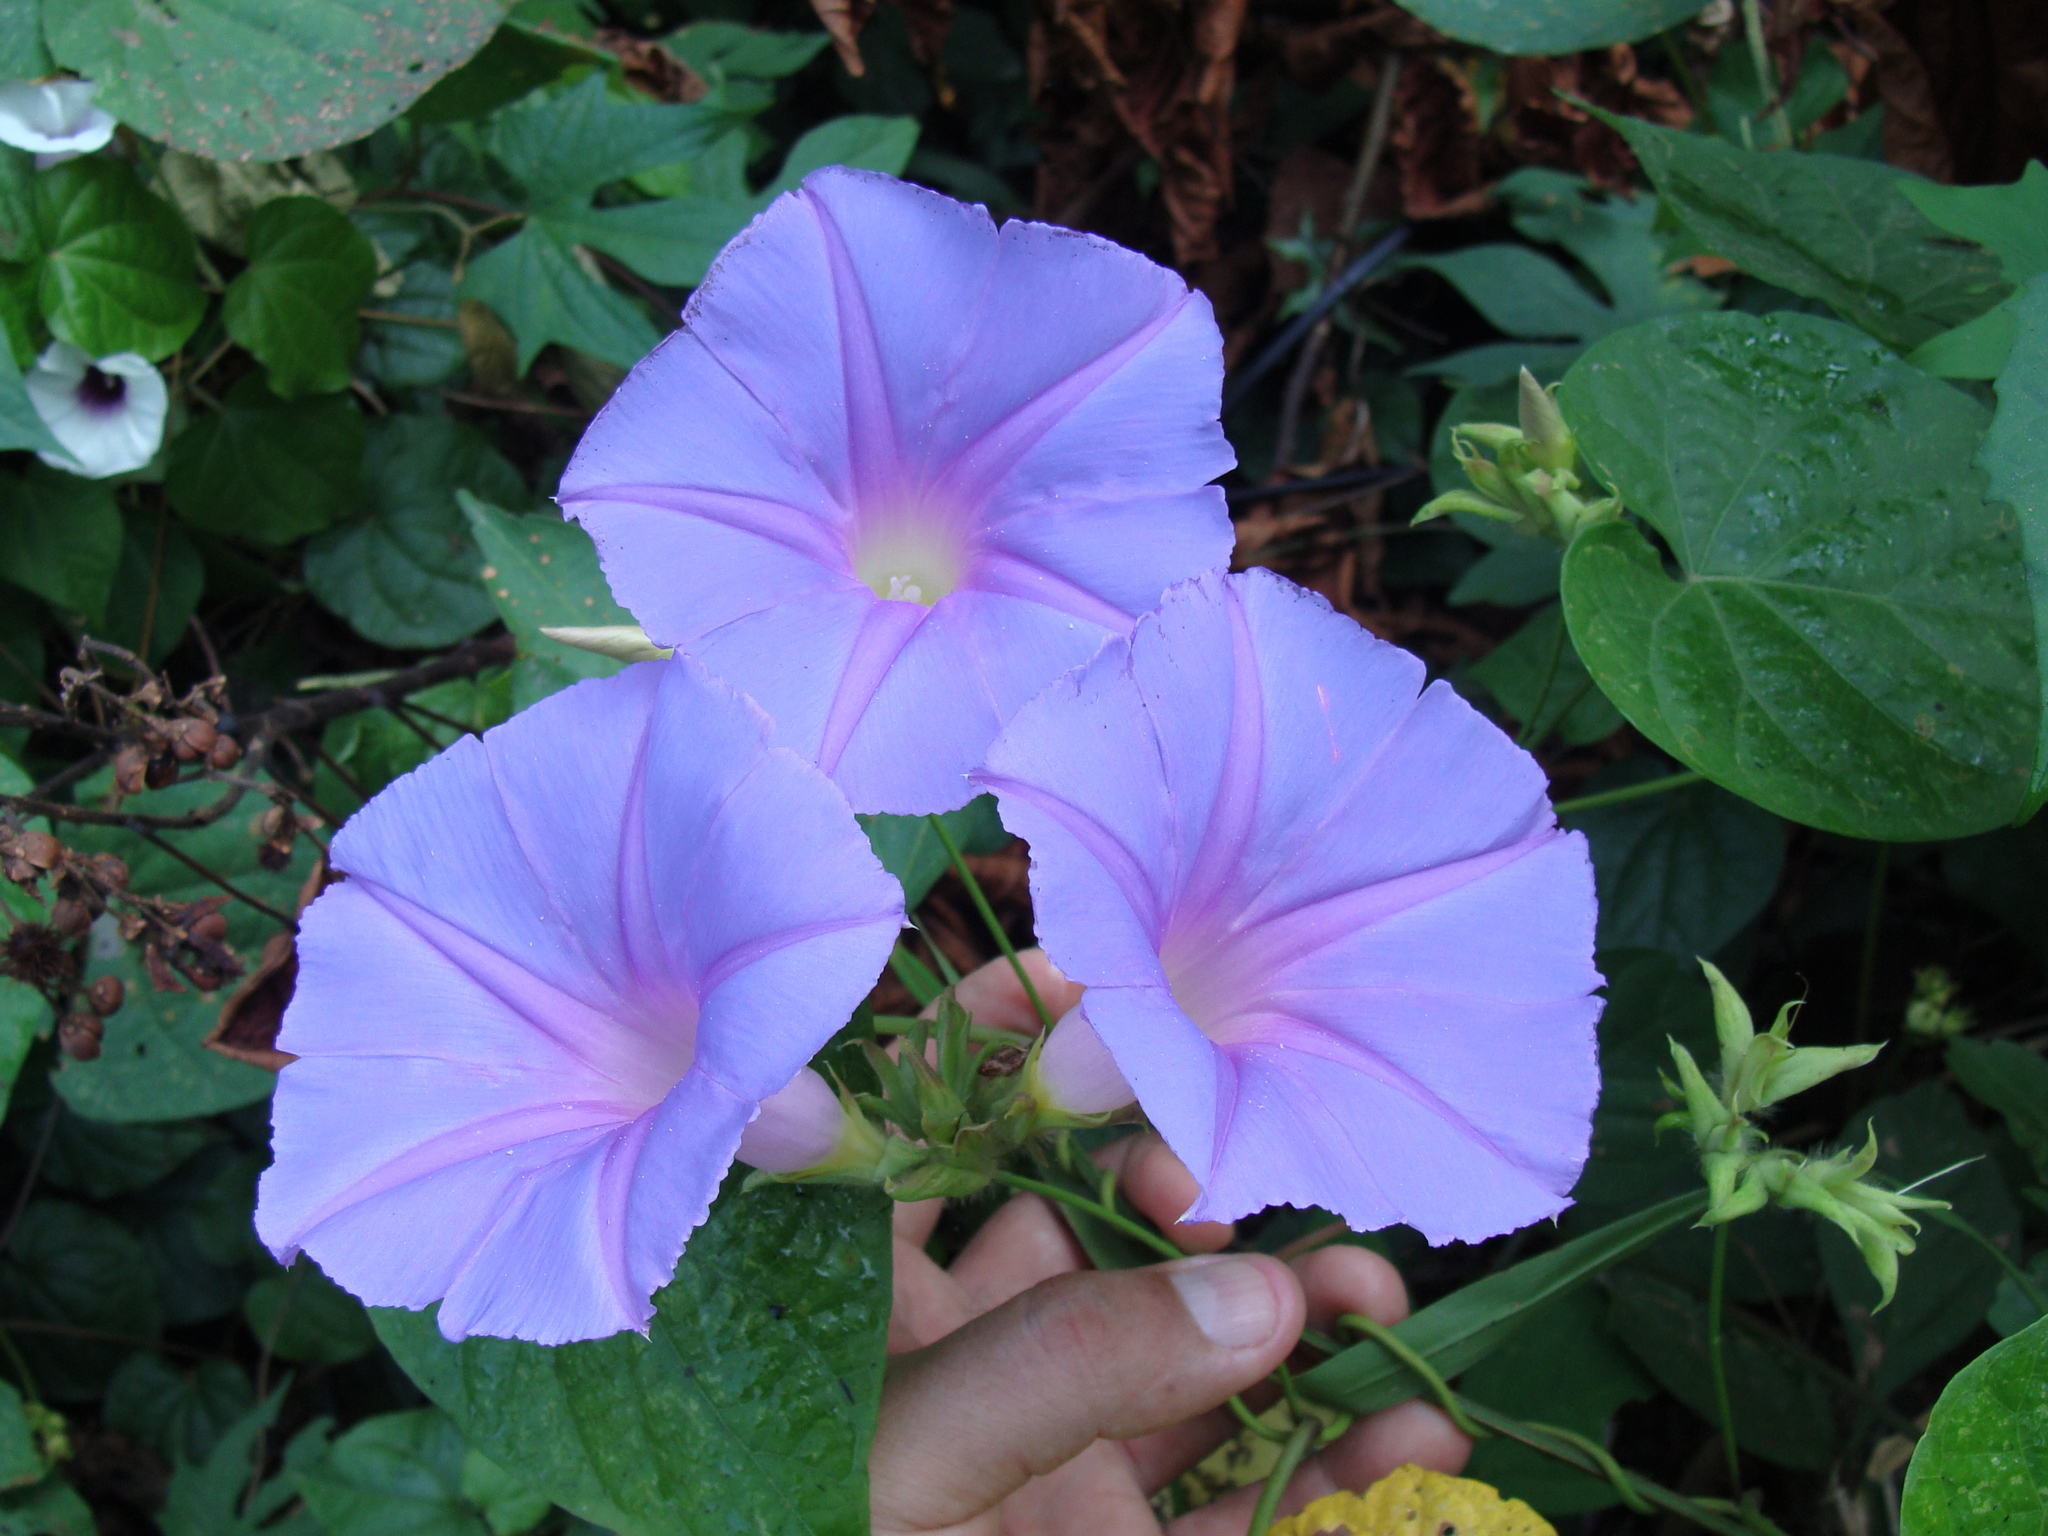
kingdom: Plantae
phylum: Tracheophyta
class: Magnoliopsida
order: Solanales
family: Convolvulaceae
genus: Ipomoea
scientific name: Ipomoea mitchelliae
